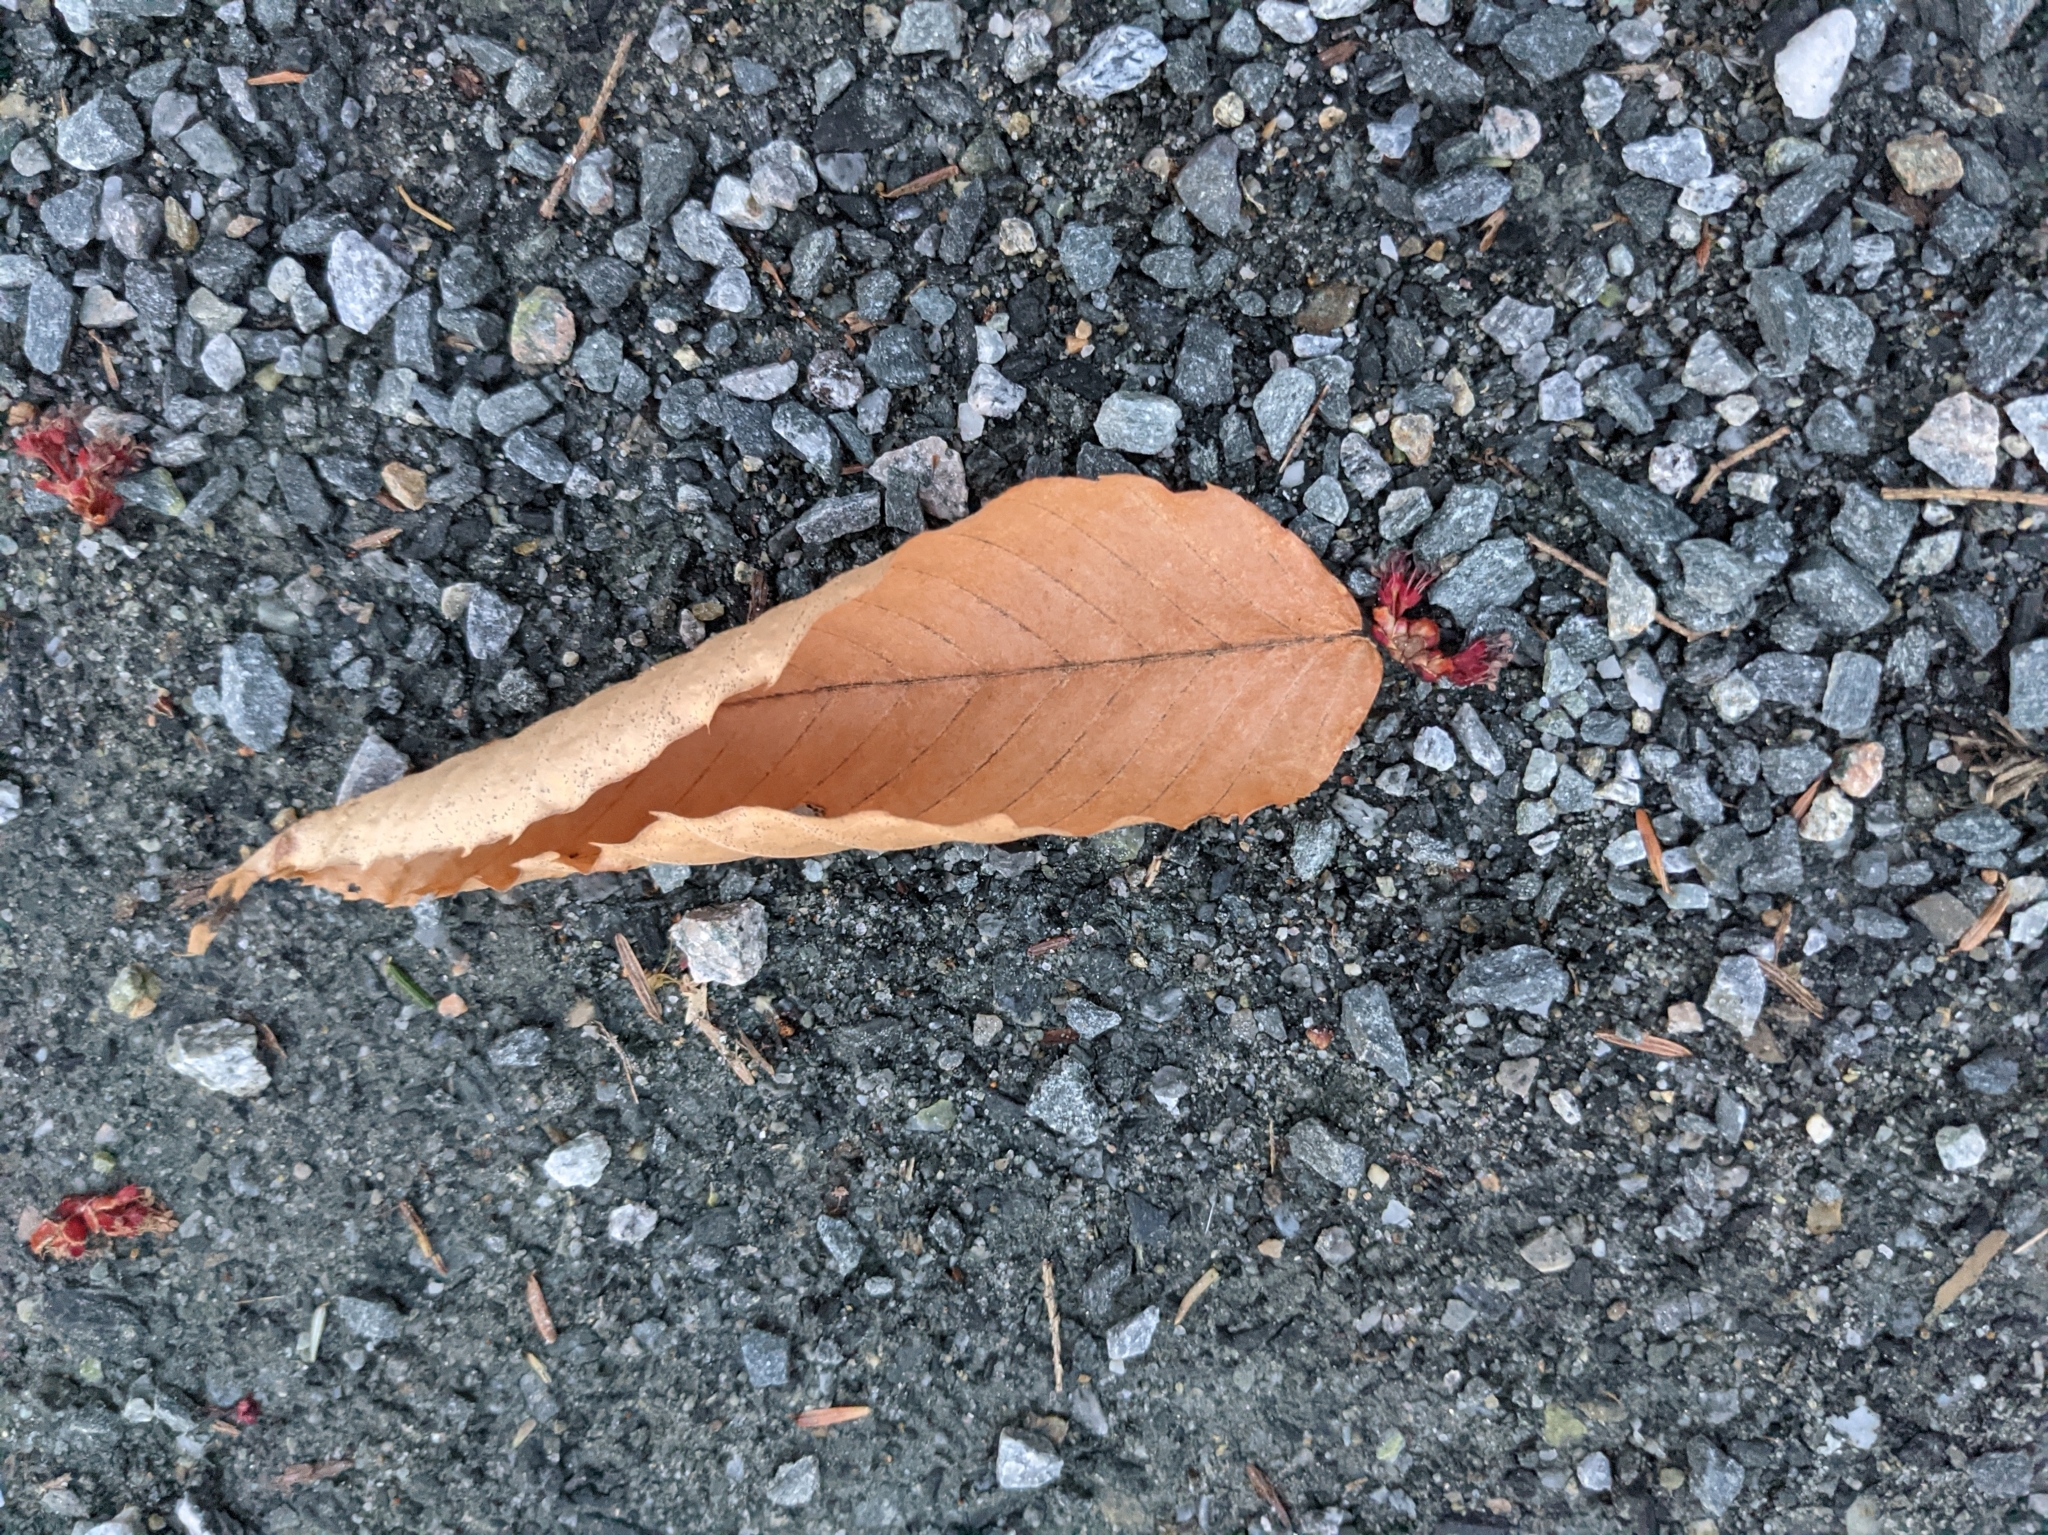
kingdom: Plantae
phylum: Tracheophyta
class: Magnoliopsida
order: Fagales
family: Fagaceae
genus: Fagus
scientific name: Fagus grandifolia
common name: American beech
